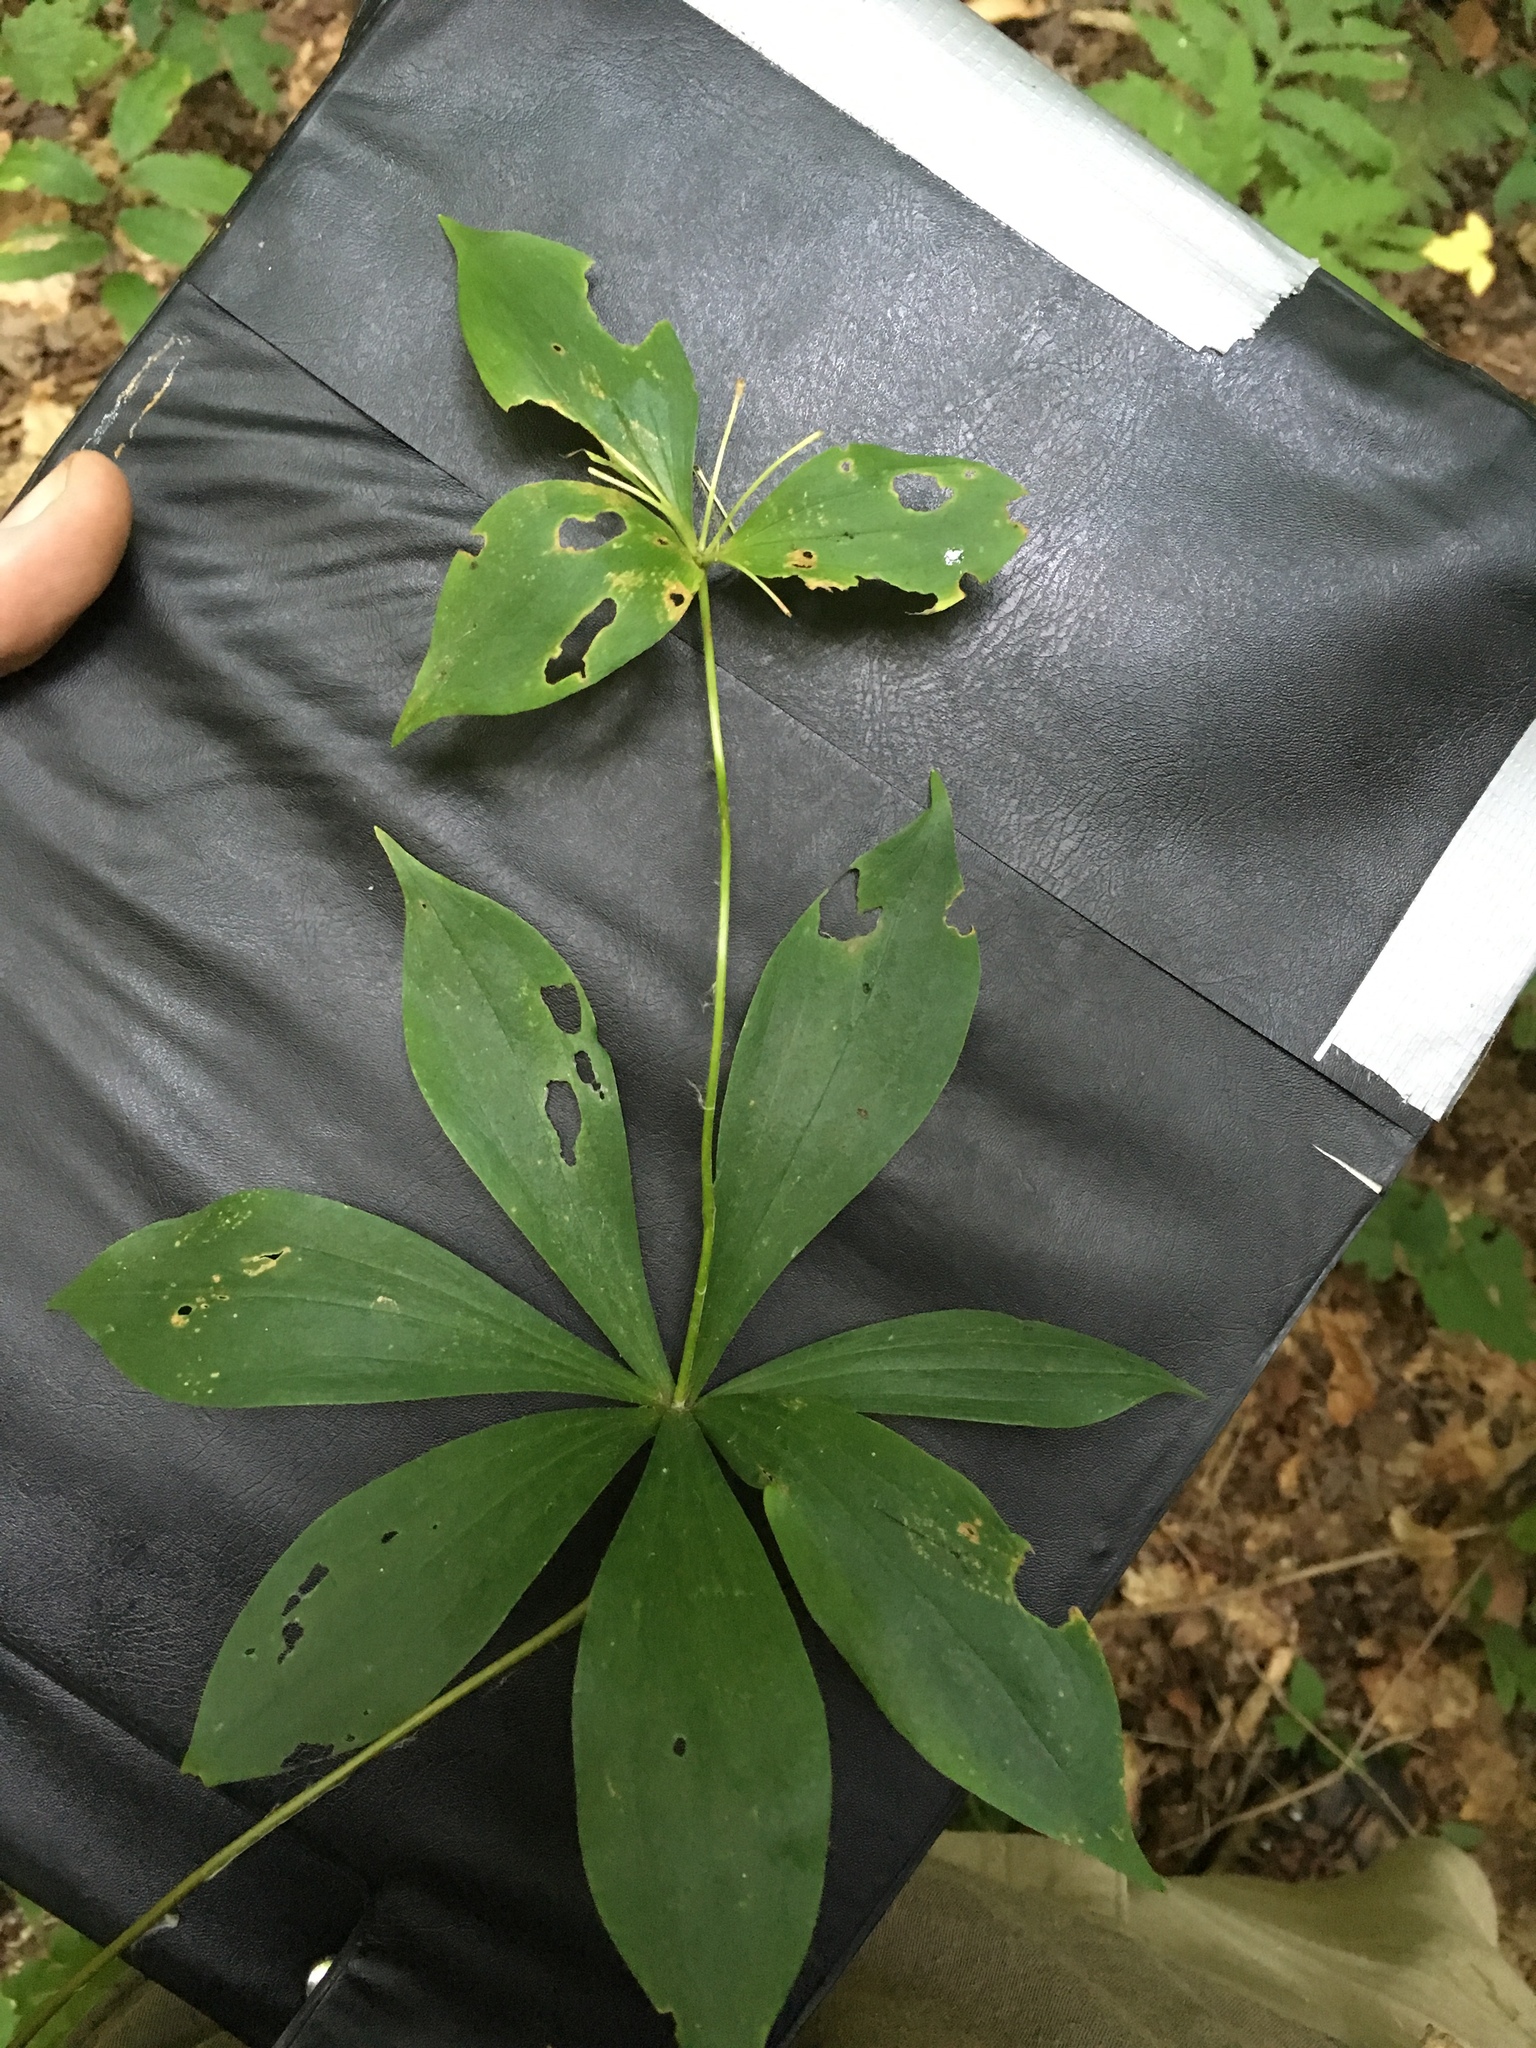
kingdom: Plantae
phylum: Tracheophyta
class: Liliopsida
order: Liliales
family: Liliaceae
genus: Medeola
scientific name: Medeola virginiana
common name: Indian cucumber-root
